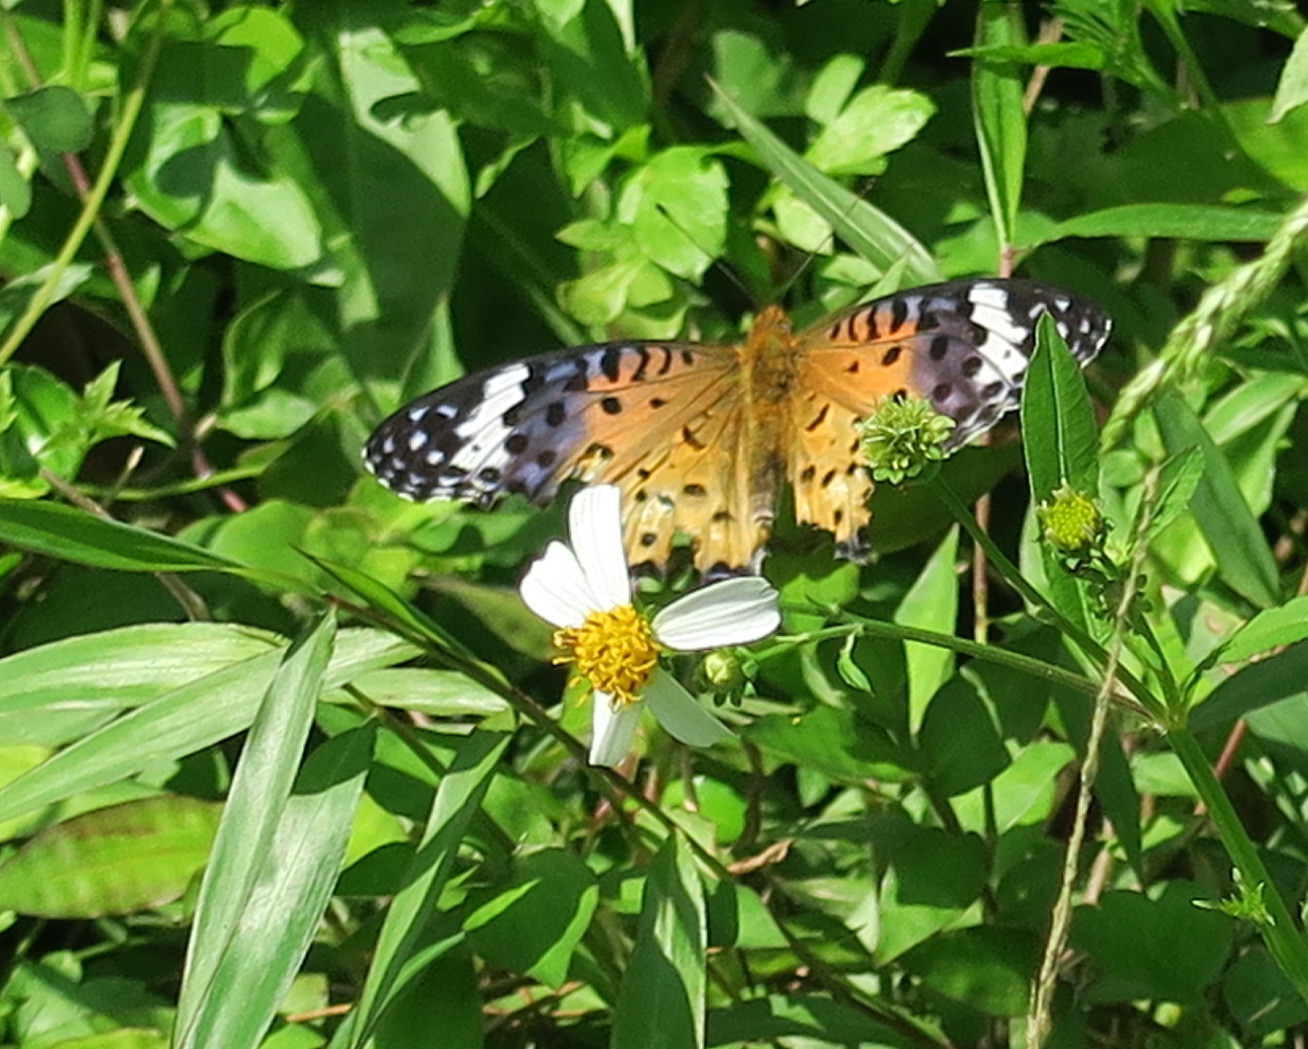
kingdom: Animalia
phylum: Arthropoda
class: Insecta
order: Lepidoptera
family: Nymphalidae
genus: Argynnis
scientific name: Argynnis hyperbius
